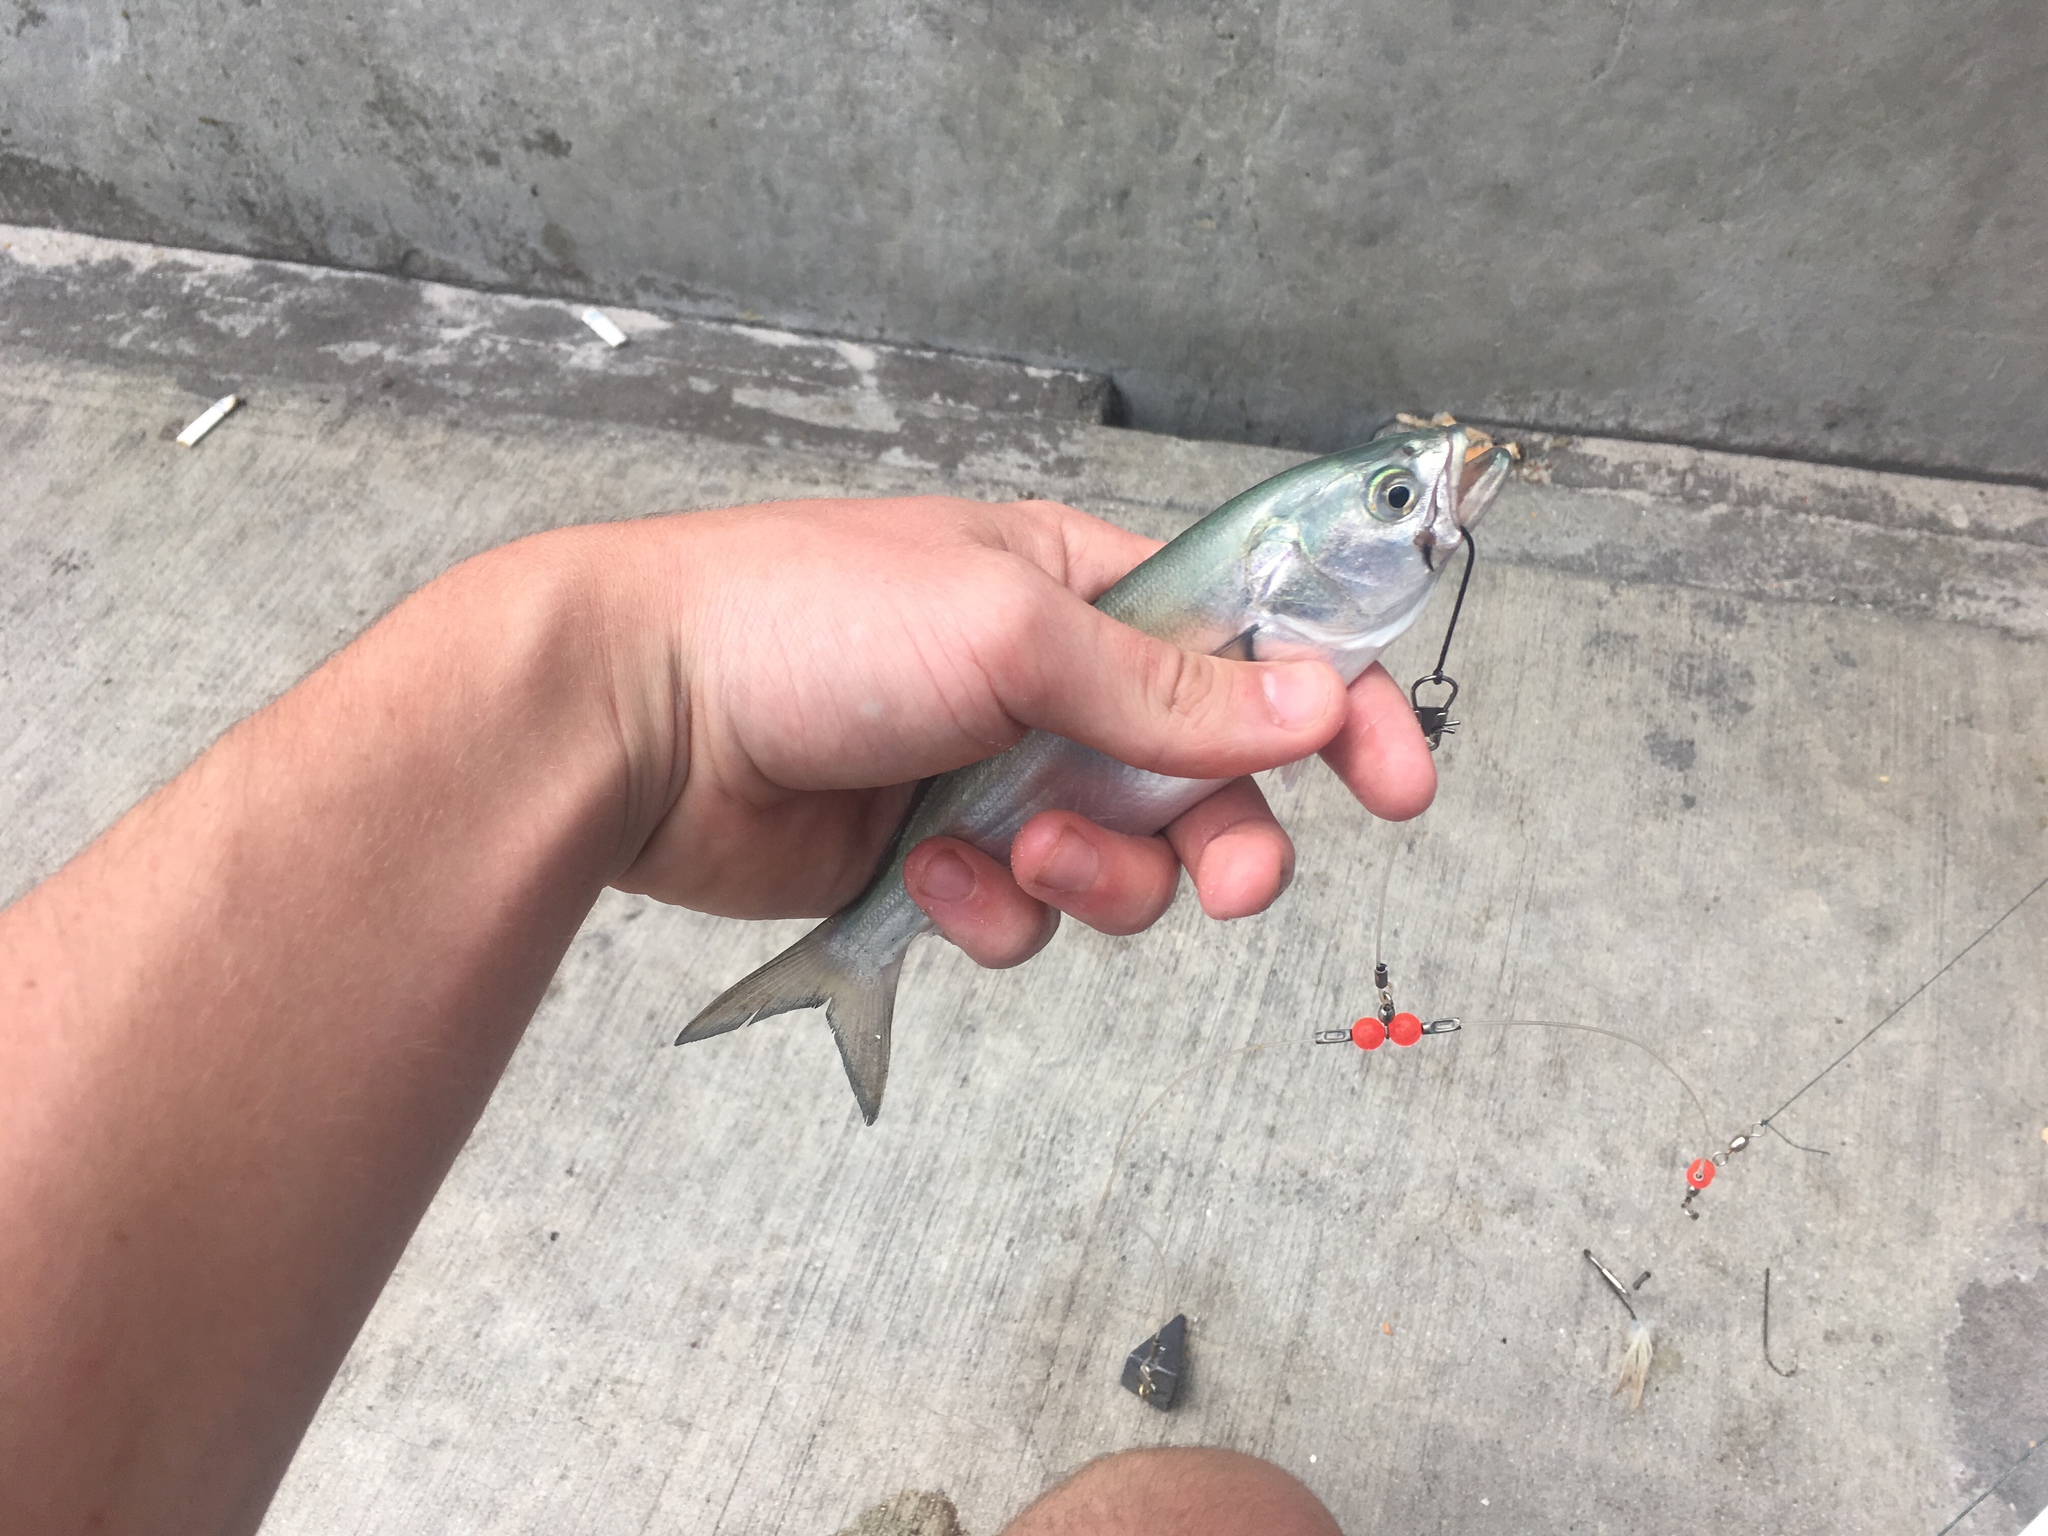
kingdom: Animalia
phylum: Chordata
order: Perciformes
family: Pomatomidae
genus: Pomatomus
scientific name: Pomatomus saltatrix
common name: Bluefish
